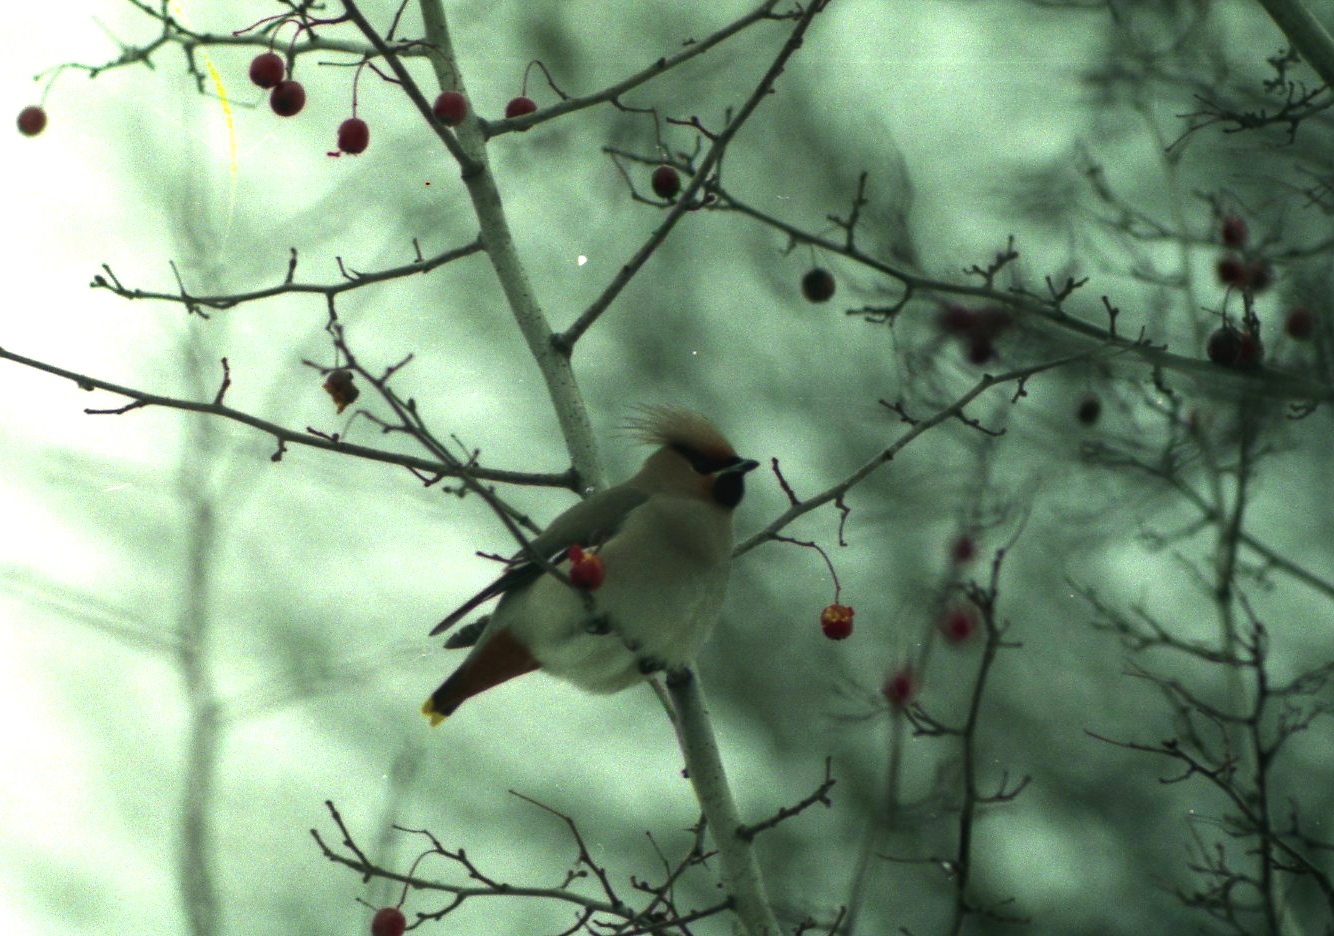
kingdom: Animalia
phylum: Chordata
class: Aves
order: Passeriformes
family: Bombycillidae
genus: Bombycilla
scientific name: Bombycilla garrulus
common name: Bohemian waxwing
